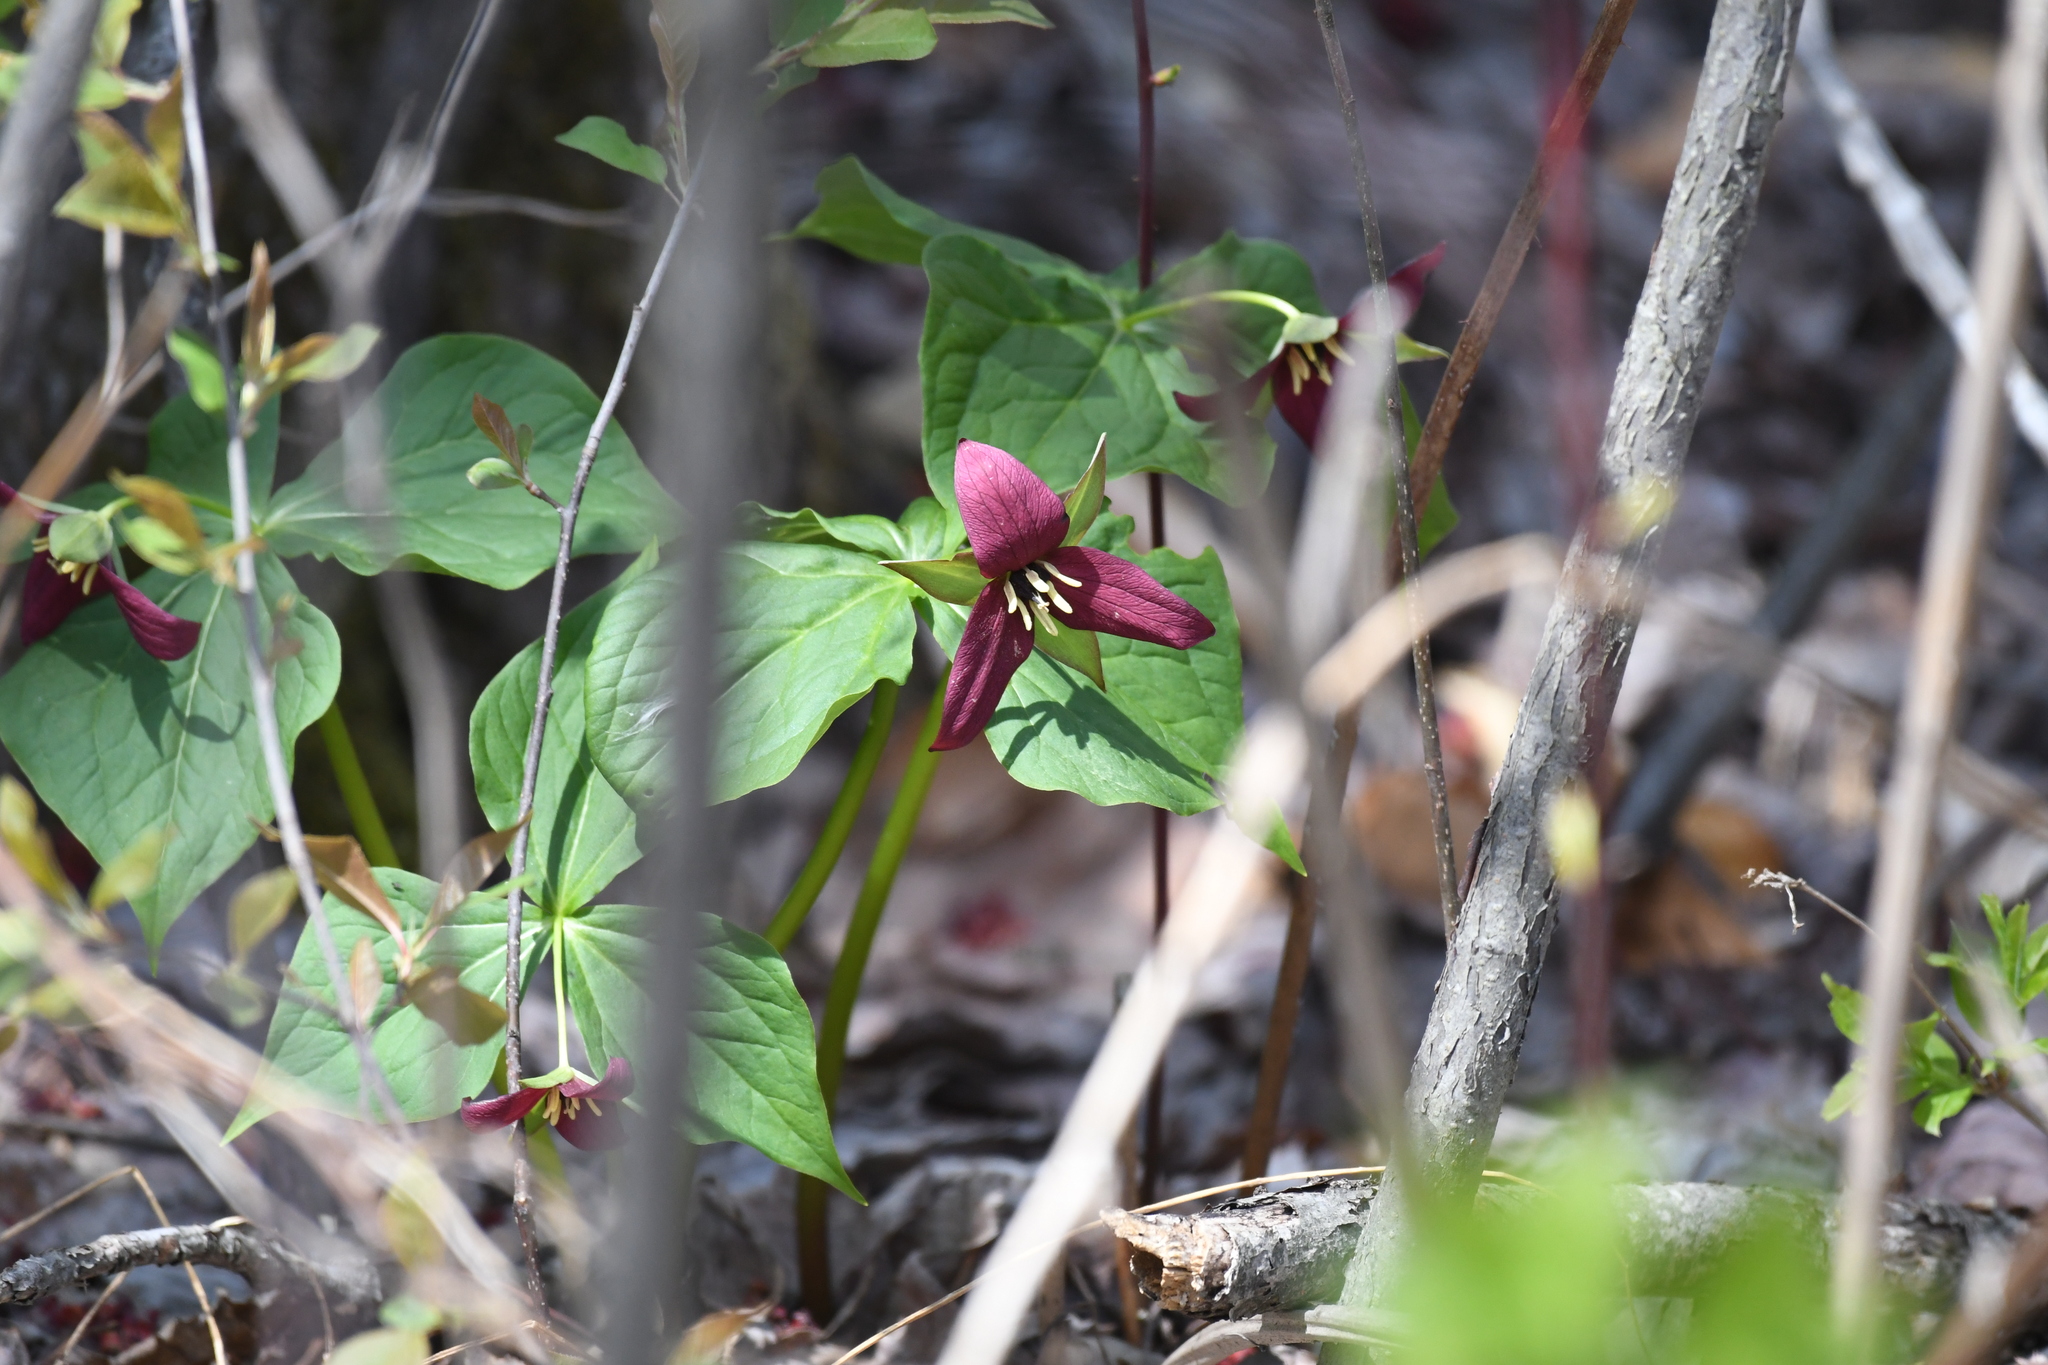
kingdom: Plantae
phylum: Tracheophyta
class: Liliopsida
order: Liliales
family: Melanthiaceae
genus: Trillium
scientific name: Trillium erectum
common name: Purple trillium
